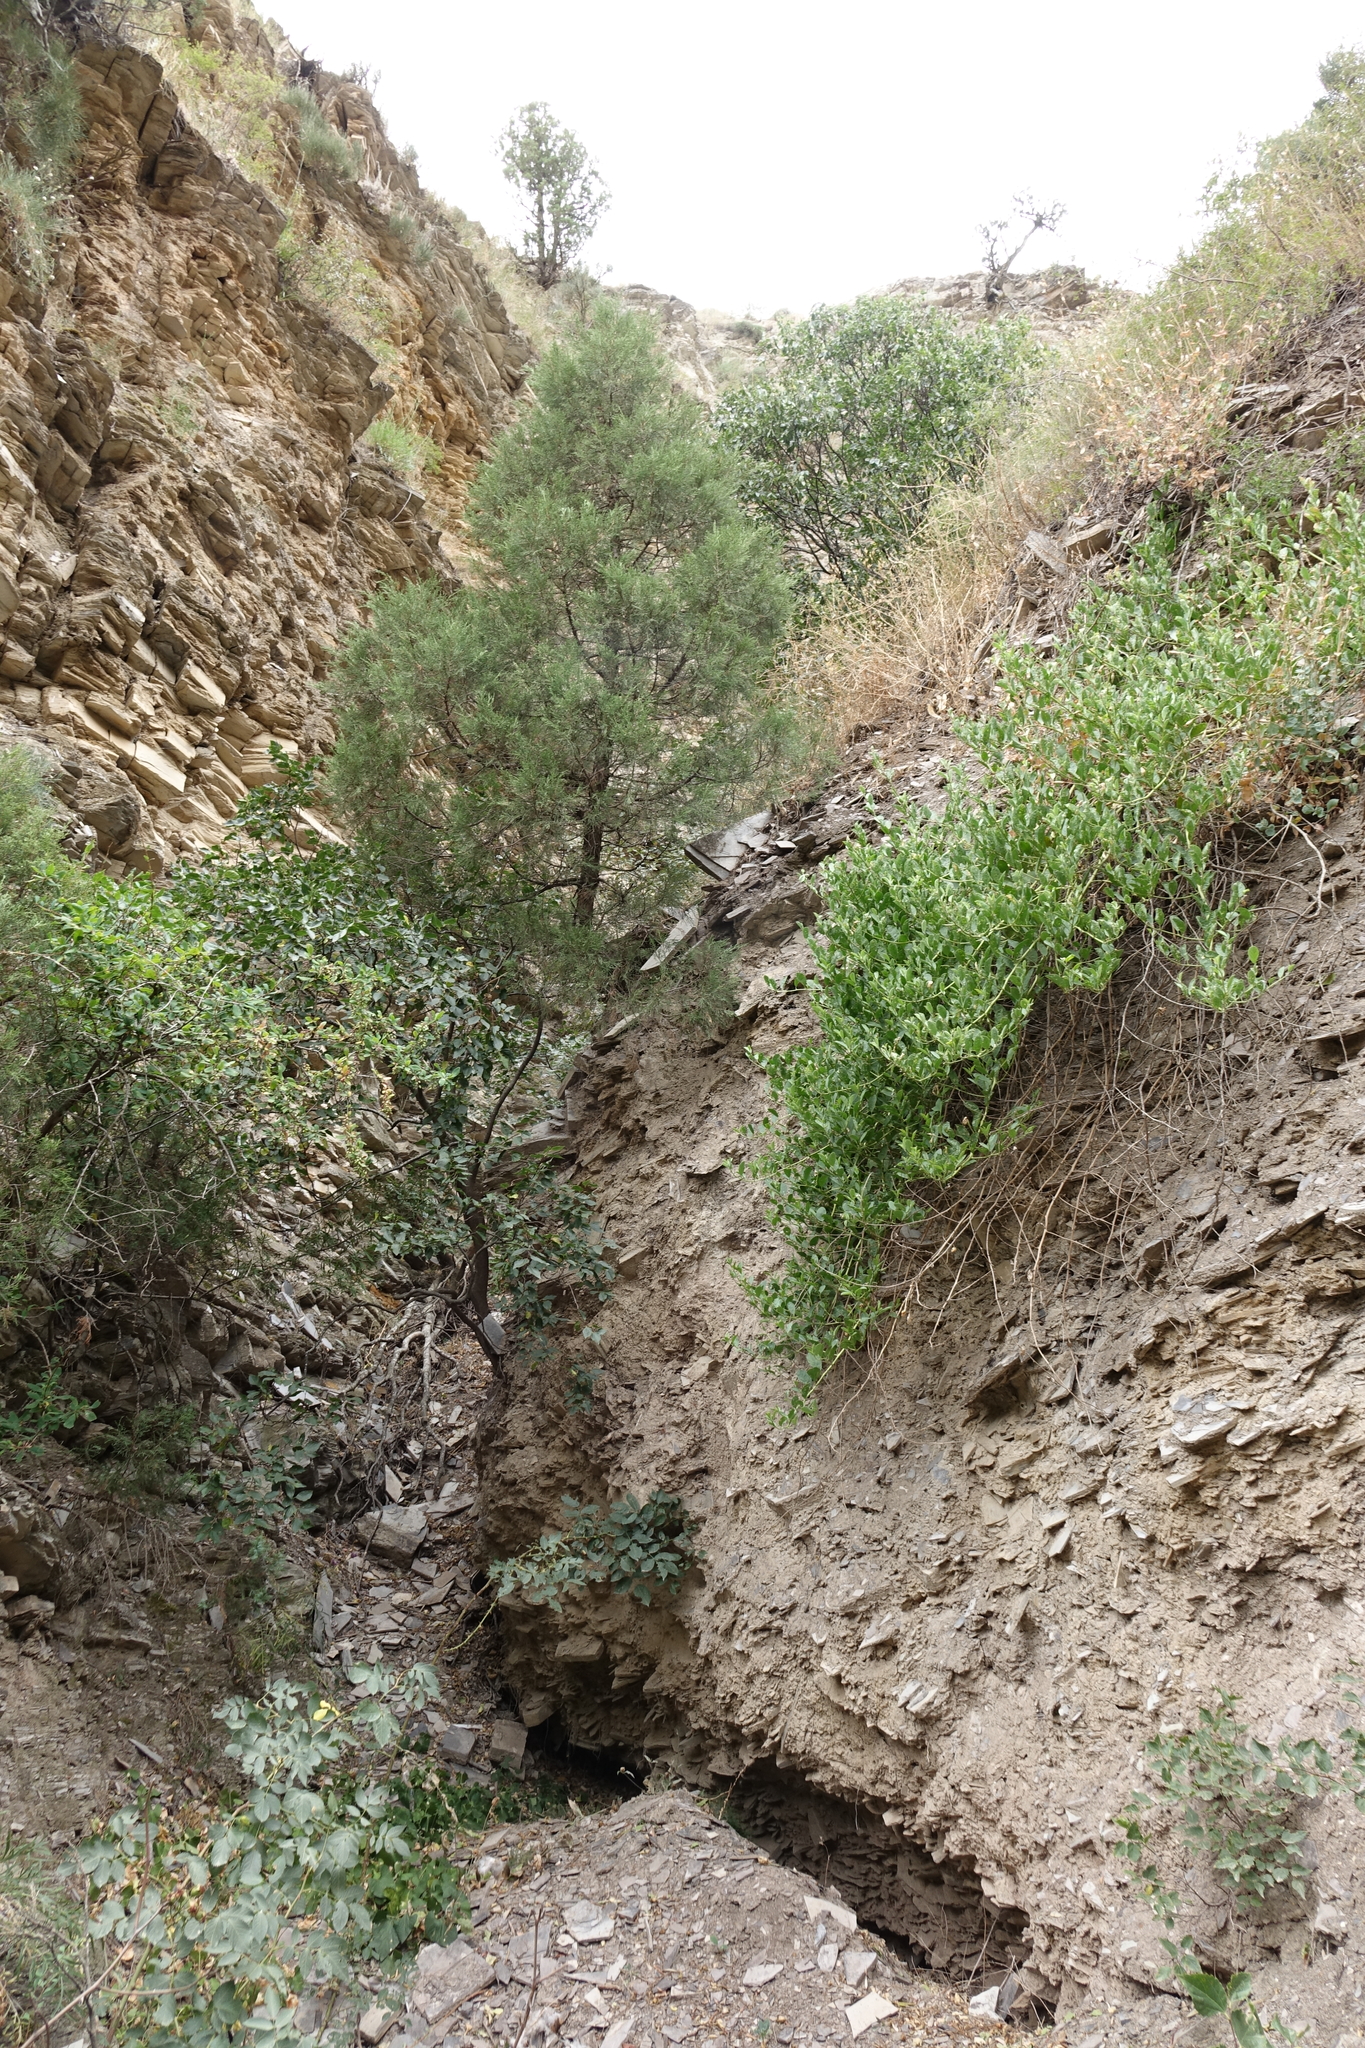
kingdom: Plantae
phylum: Tracheophyta
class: Pinopsida
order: Pinales
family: Cupressaceae
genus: Juniperus
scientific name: Juniperus excelsa
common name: Crimean juniper
